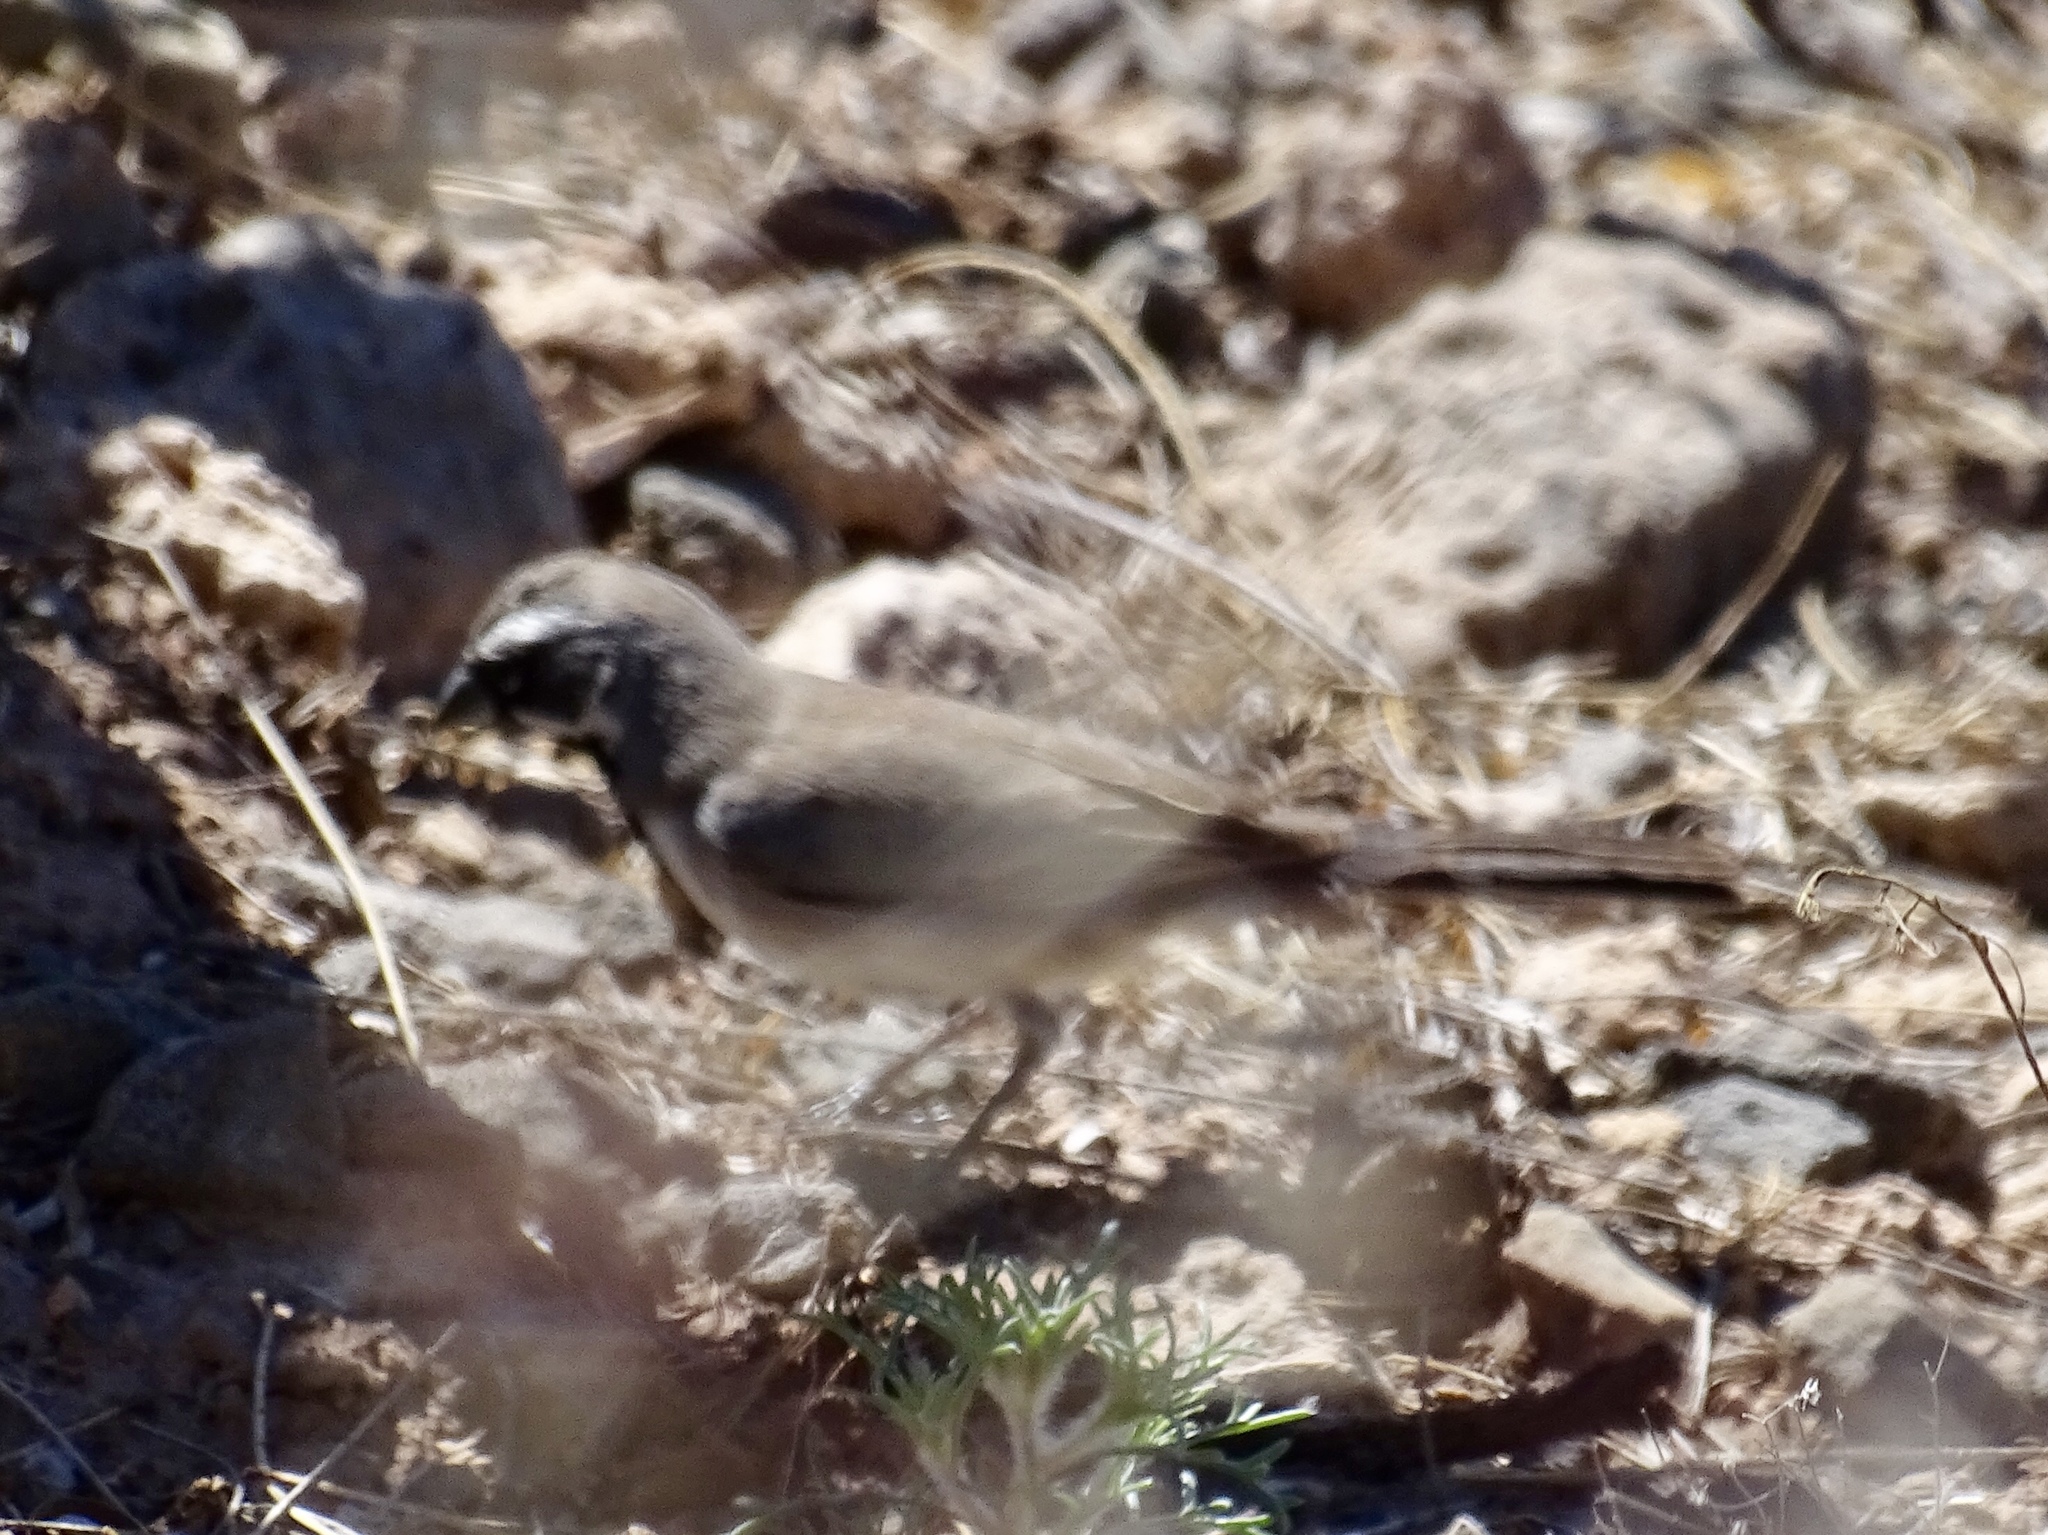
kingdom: Animalia
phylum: Chordata
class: Aves
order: Passeriformes
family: Passerellidae
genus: Amphispiza
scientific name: Amphispiza bilineata
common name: Black-throated sparrow
